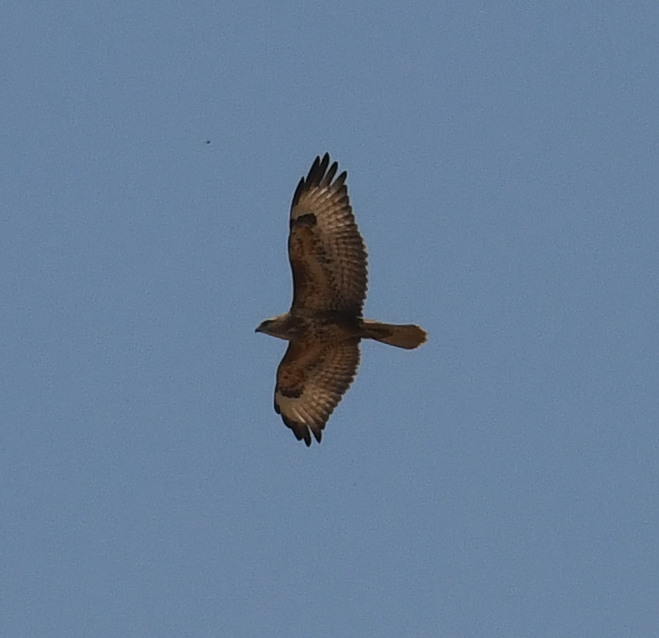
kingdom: Animalia
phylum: Chordata
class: Aves
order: Accipitriformes
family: Accipitridae
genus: Buteo
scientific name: Buteo buteo
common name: Common buzzard
